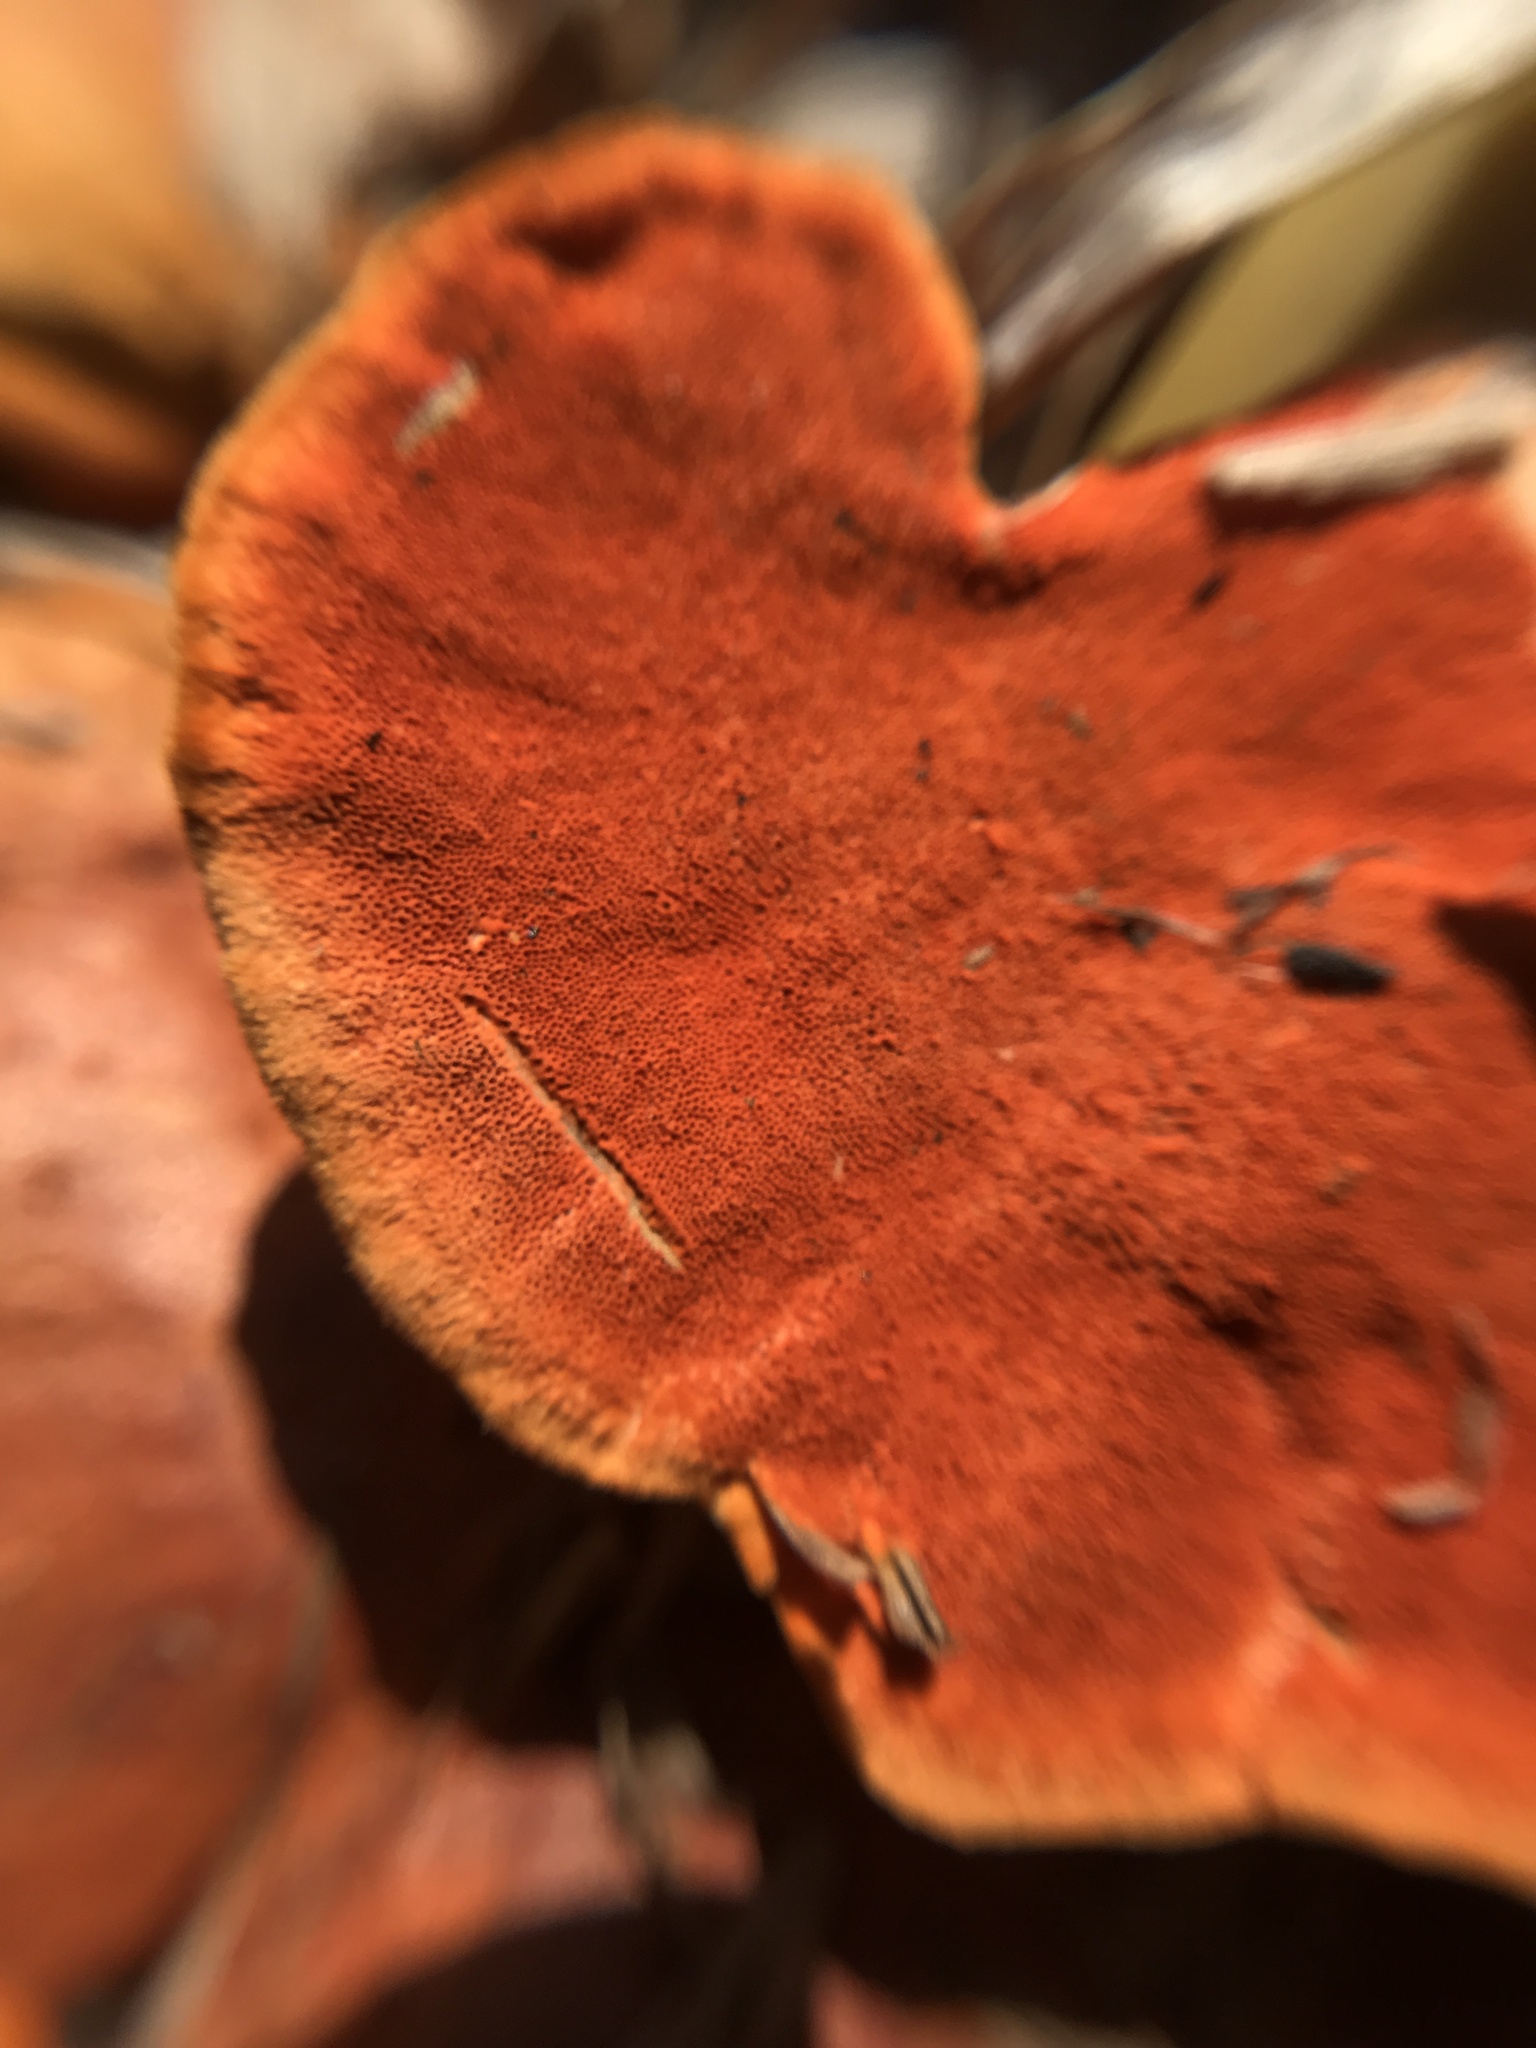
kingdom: Fungi
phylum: Basidiomycota
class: Agaricomycetes
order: Polyporales
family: Polyporaceae
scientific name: Polyporaceae
